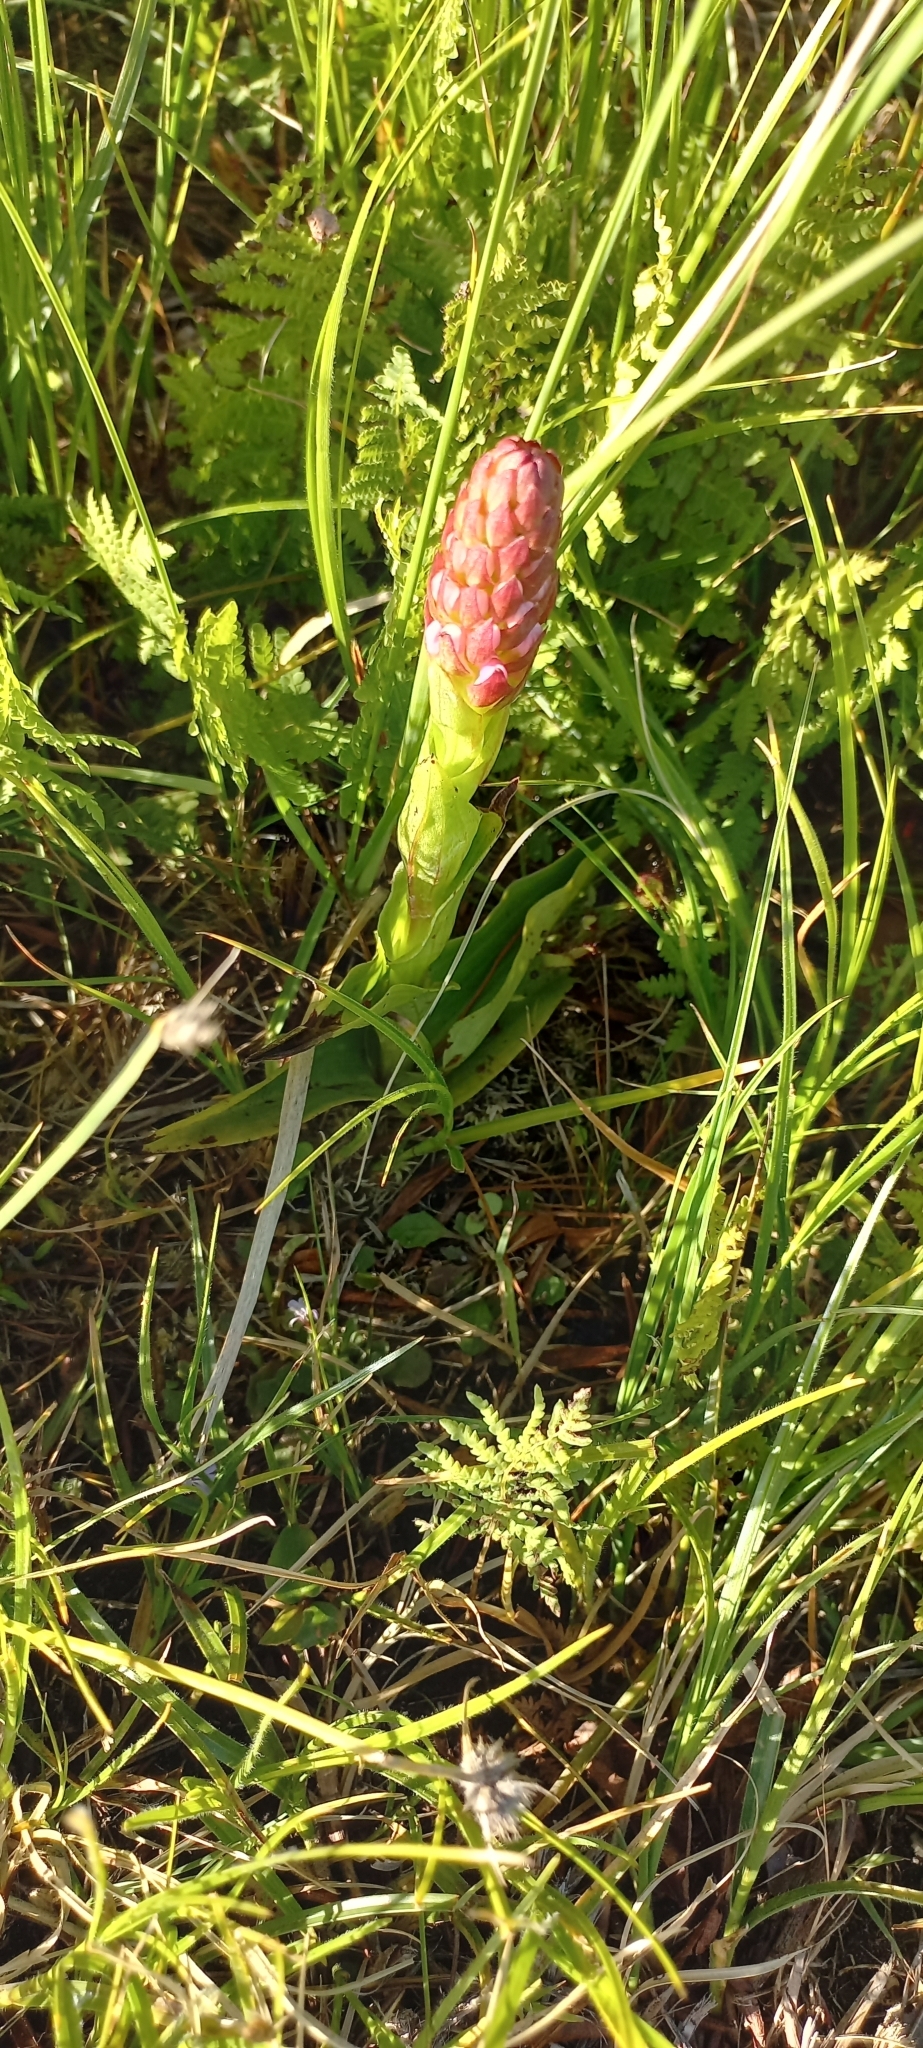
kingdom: Plantae
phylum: Tracheophyta
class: Liliopsida
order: Asparagales
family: Orchidaceae
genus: Satyrium
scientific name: Satyrium hallackii
